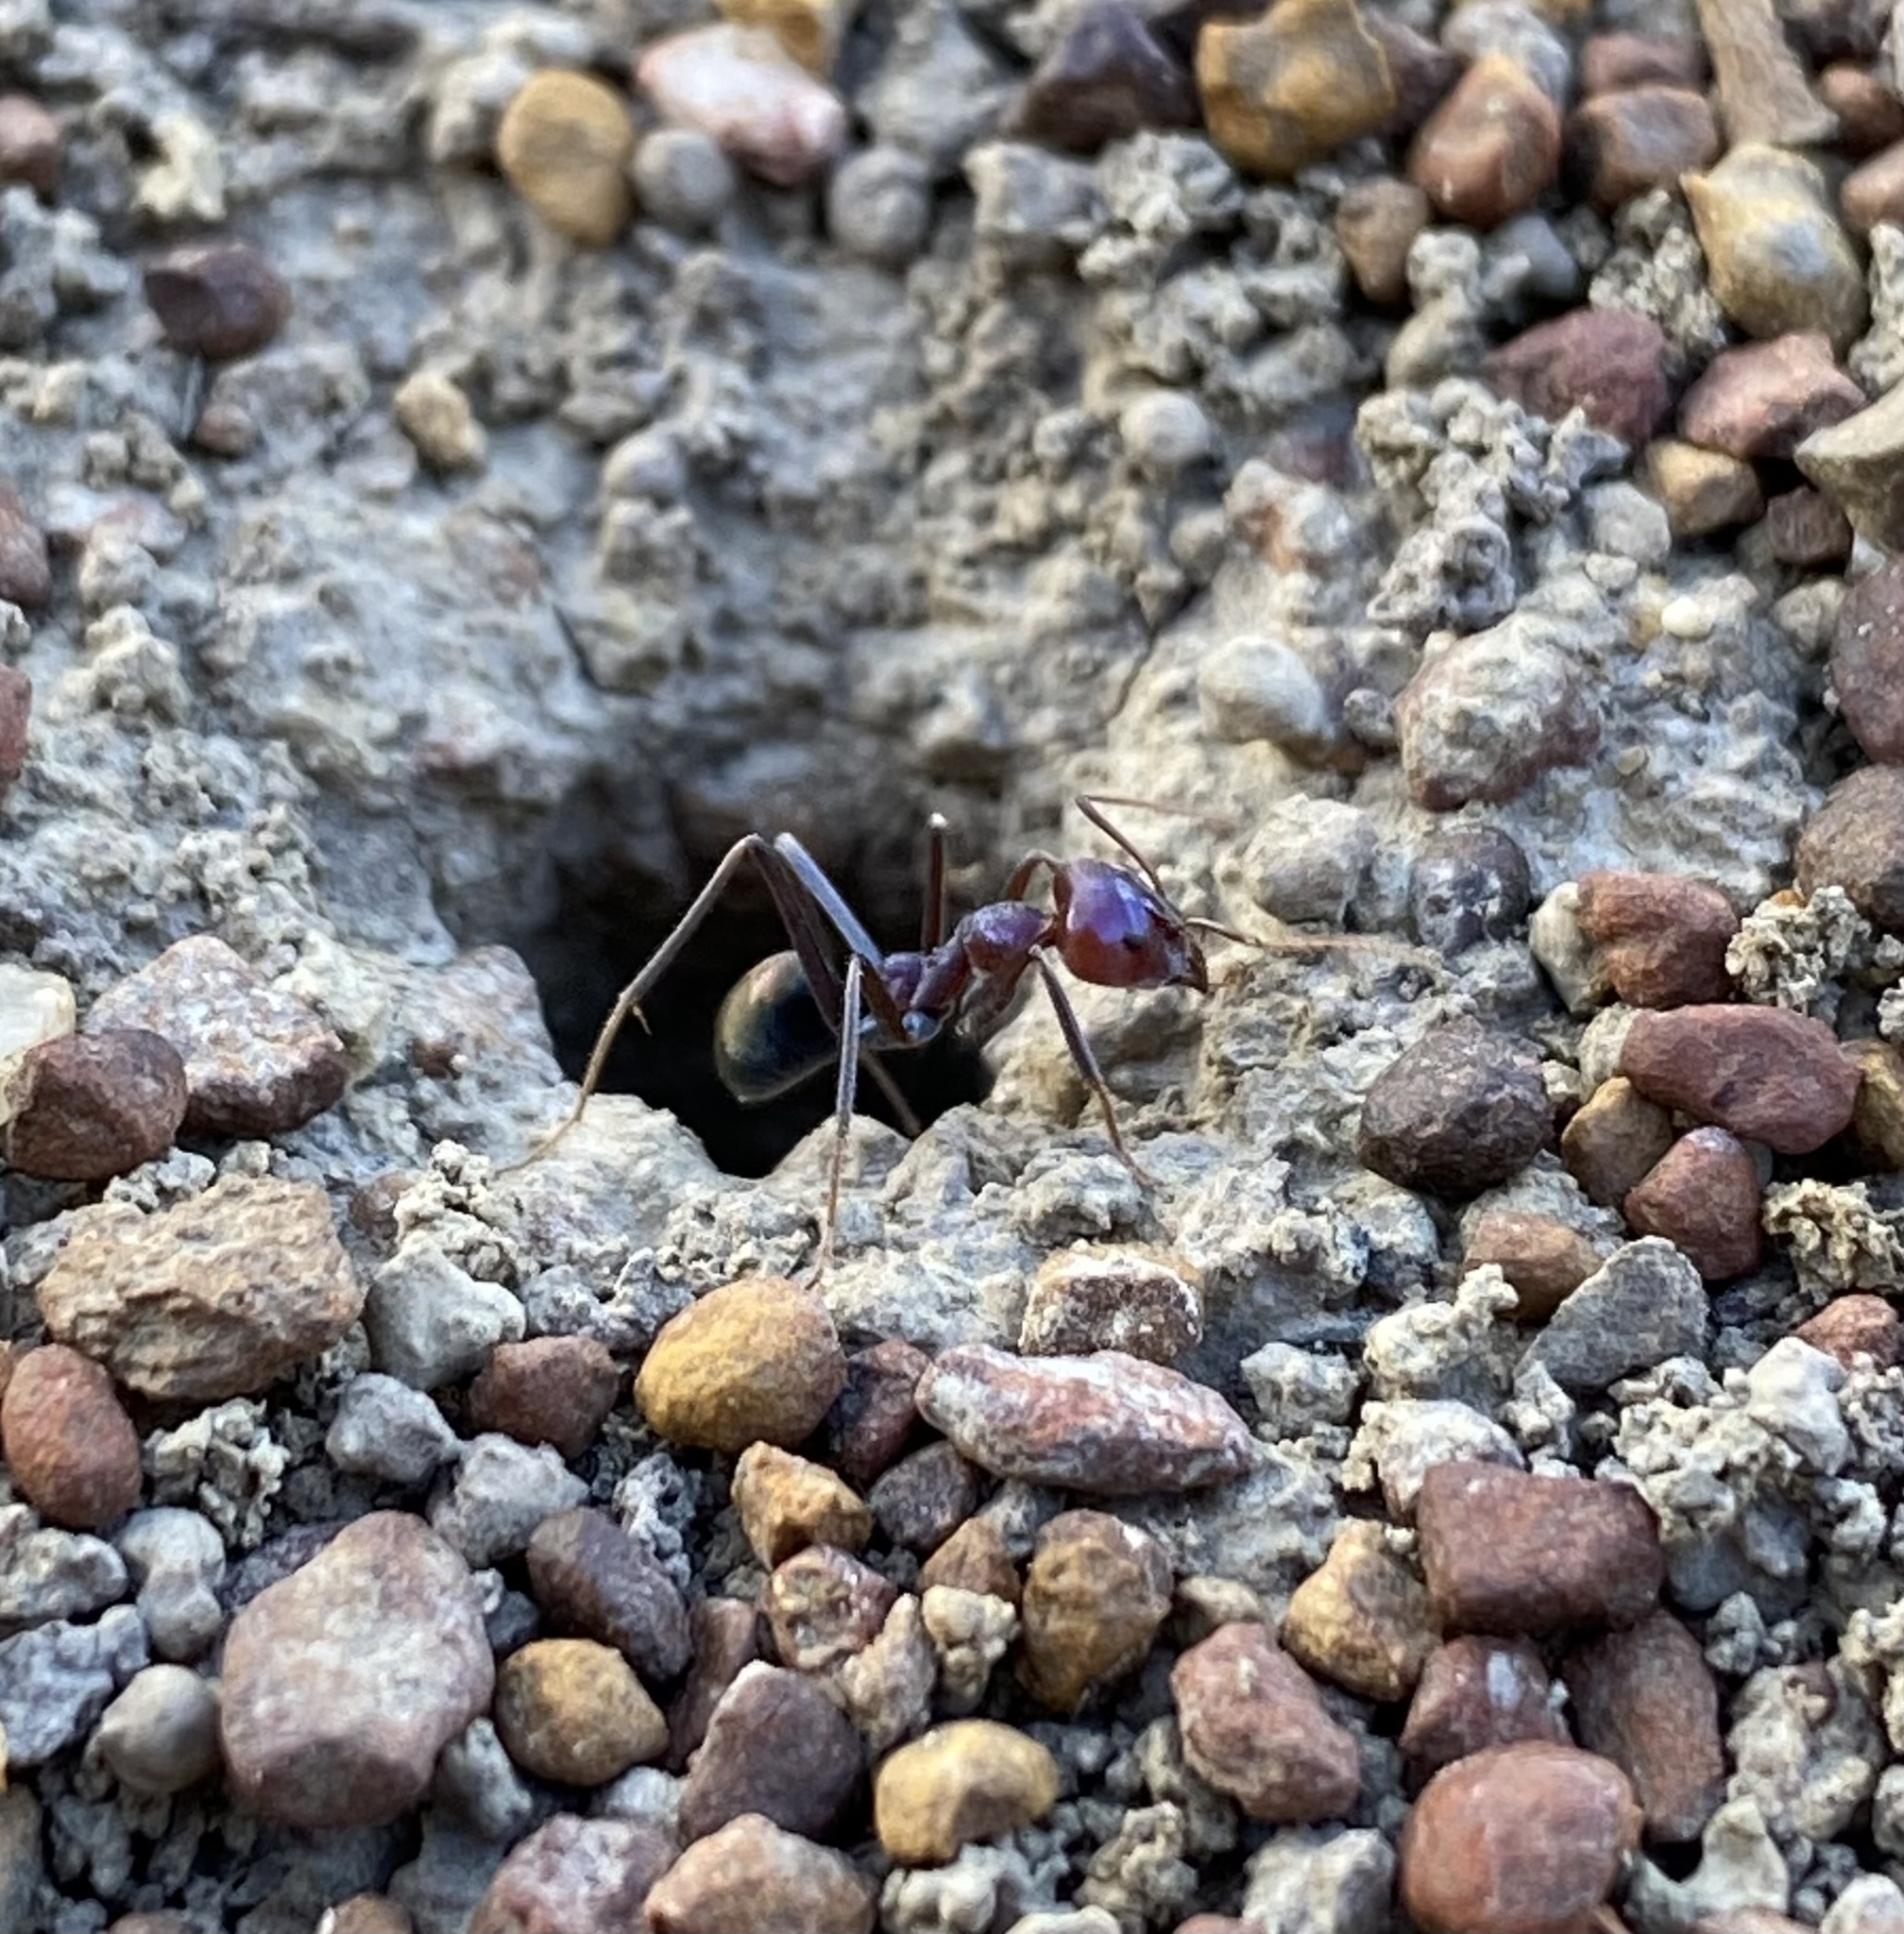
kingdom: Animalia
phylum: Arthropoda
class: Insecta
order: Hymenoptera
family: Formicidae
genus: Iridomyrmex
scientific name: Iridomyrmex purpureus
